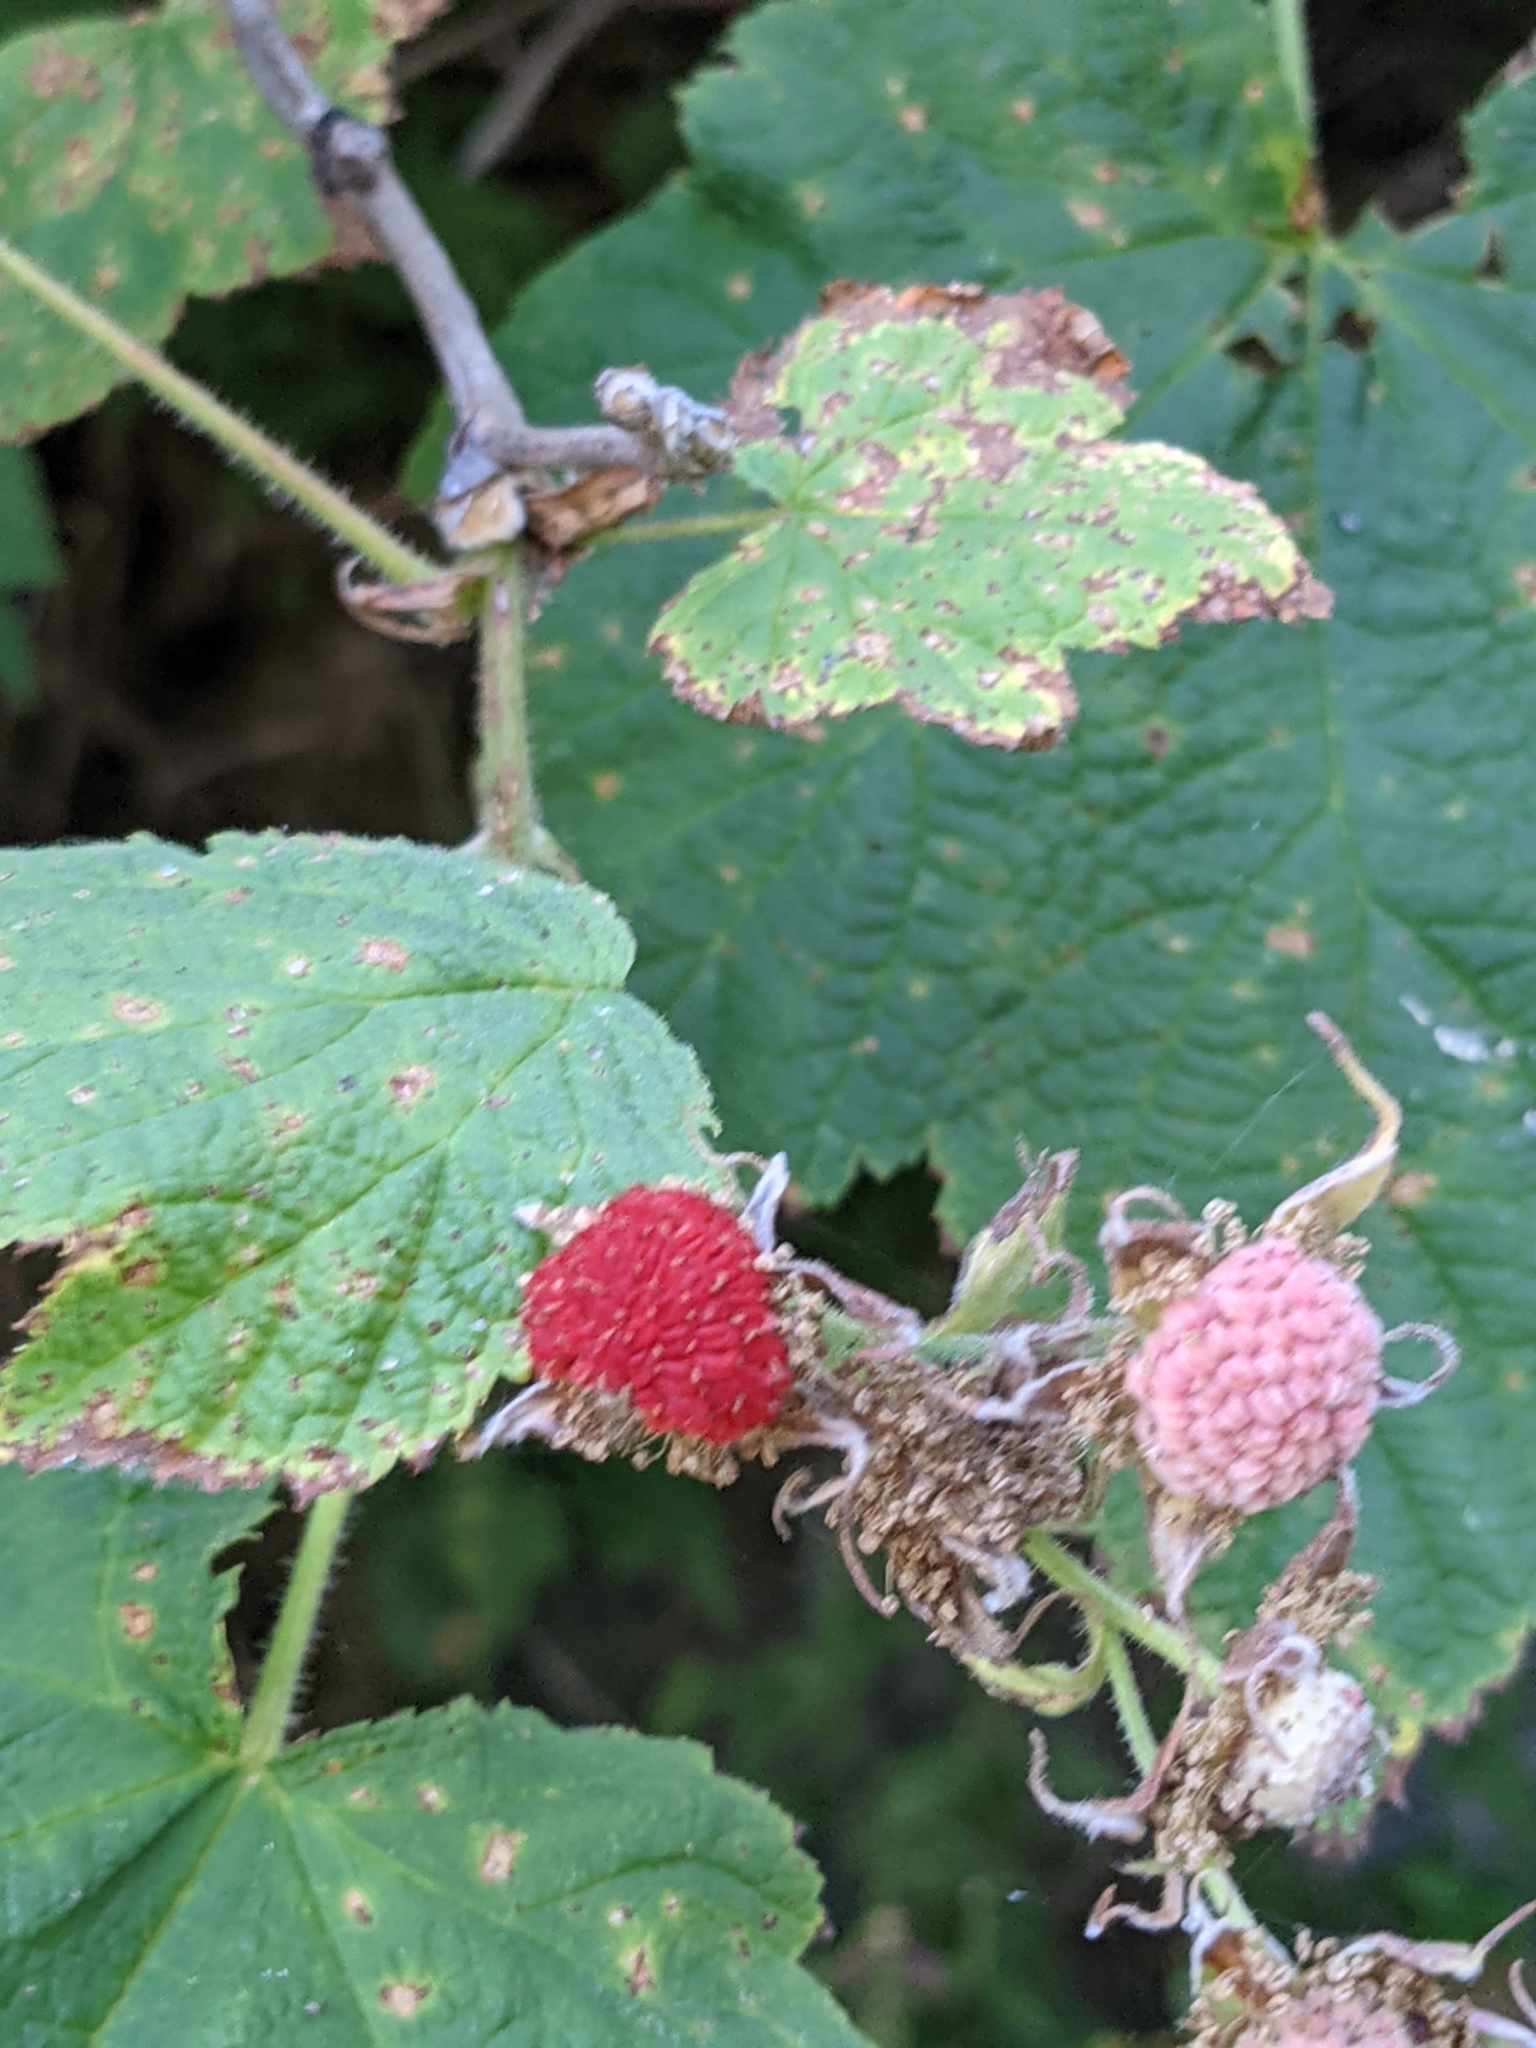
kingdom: Plantae
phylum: Tracheophyta
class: Magnoliopsida
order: Rosales
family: Rosaceae
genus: Rubus
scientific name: Rubus parviflorus
